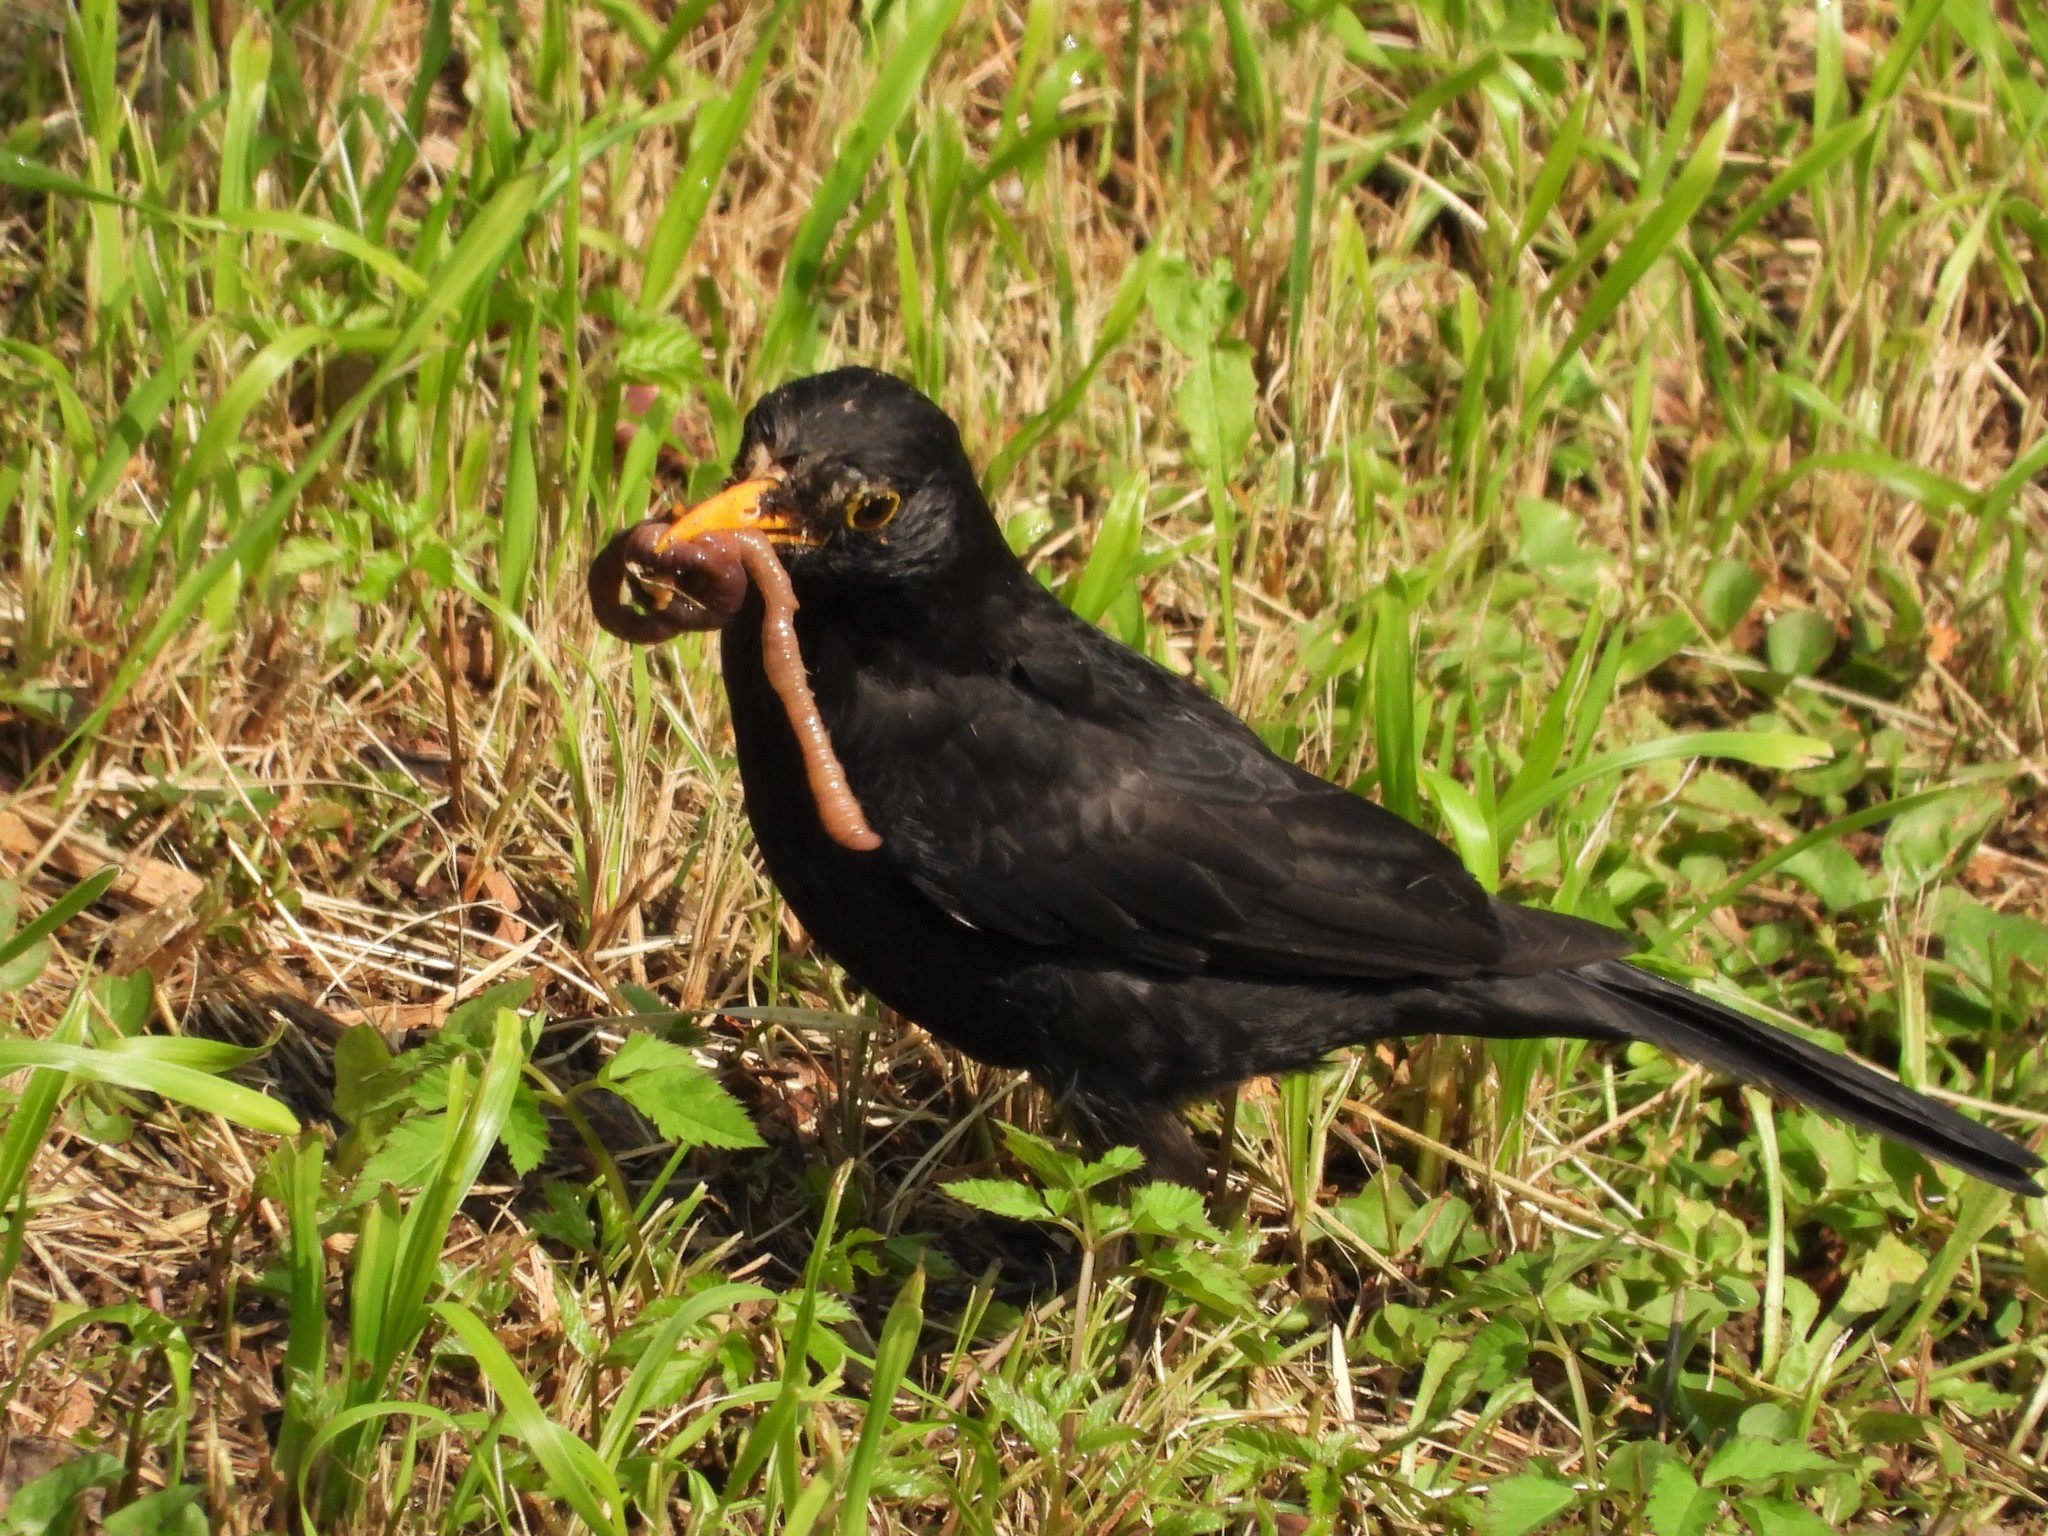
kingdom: Animalia
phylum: Chordata
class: Aves
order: Passeriformes
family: Turdidae
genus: Turdus
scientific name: Turdus merula
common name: Common blackbird
